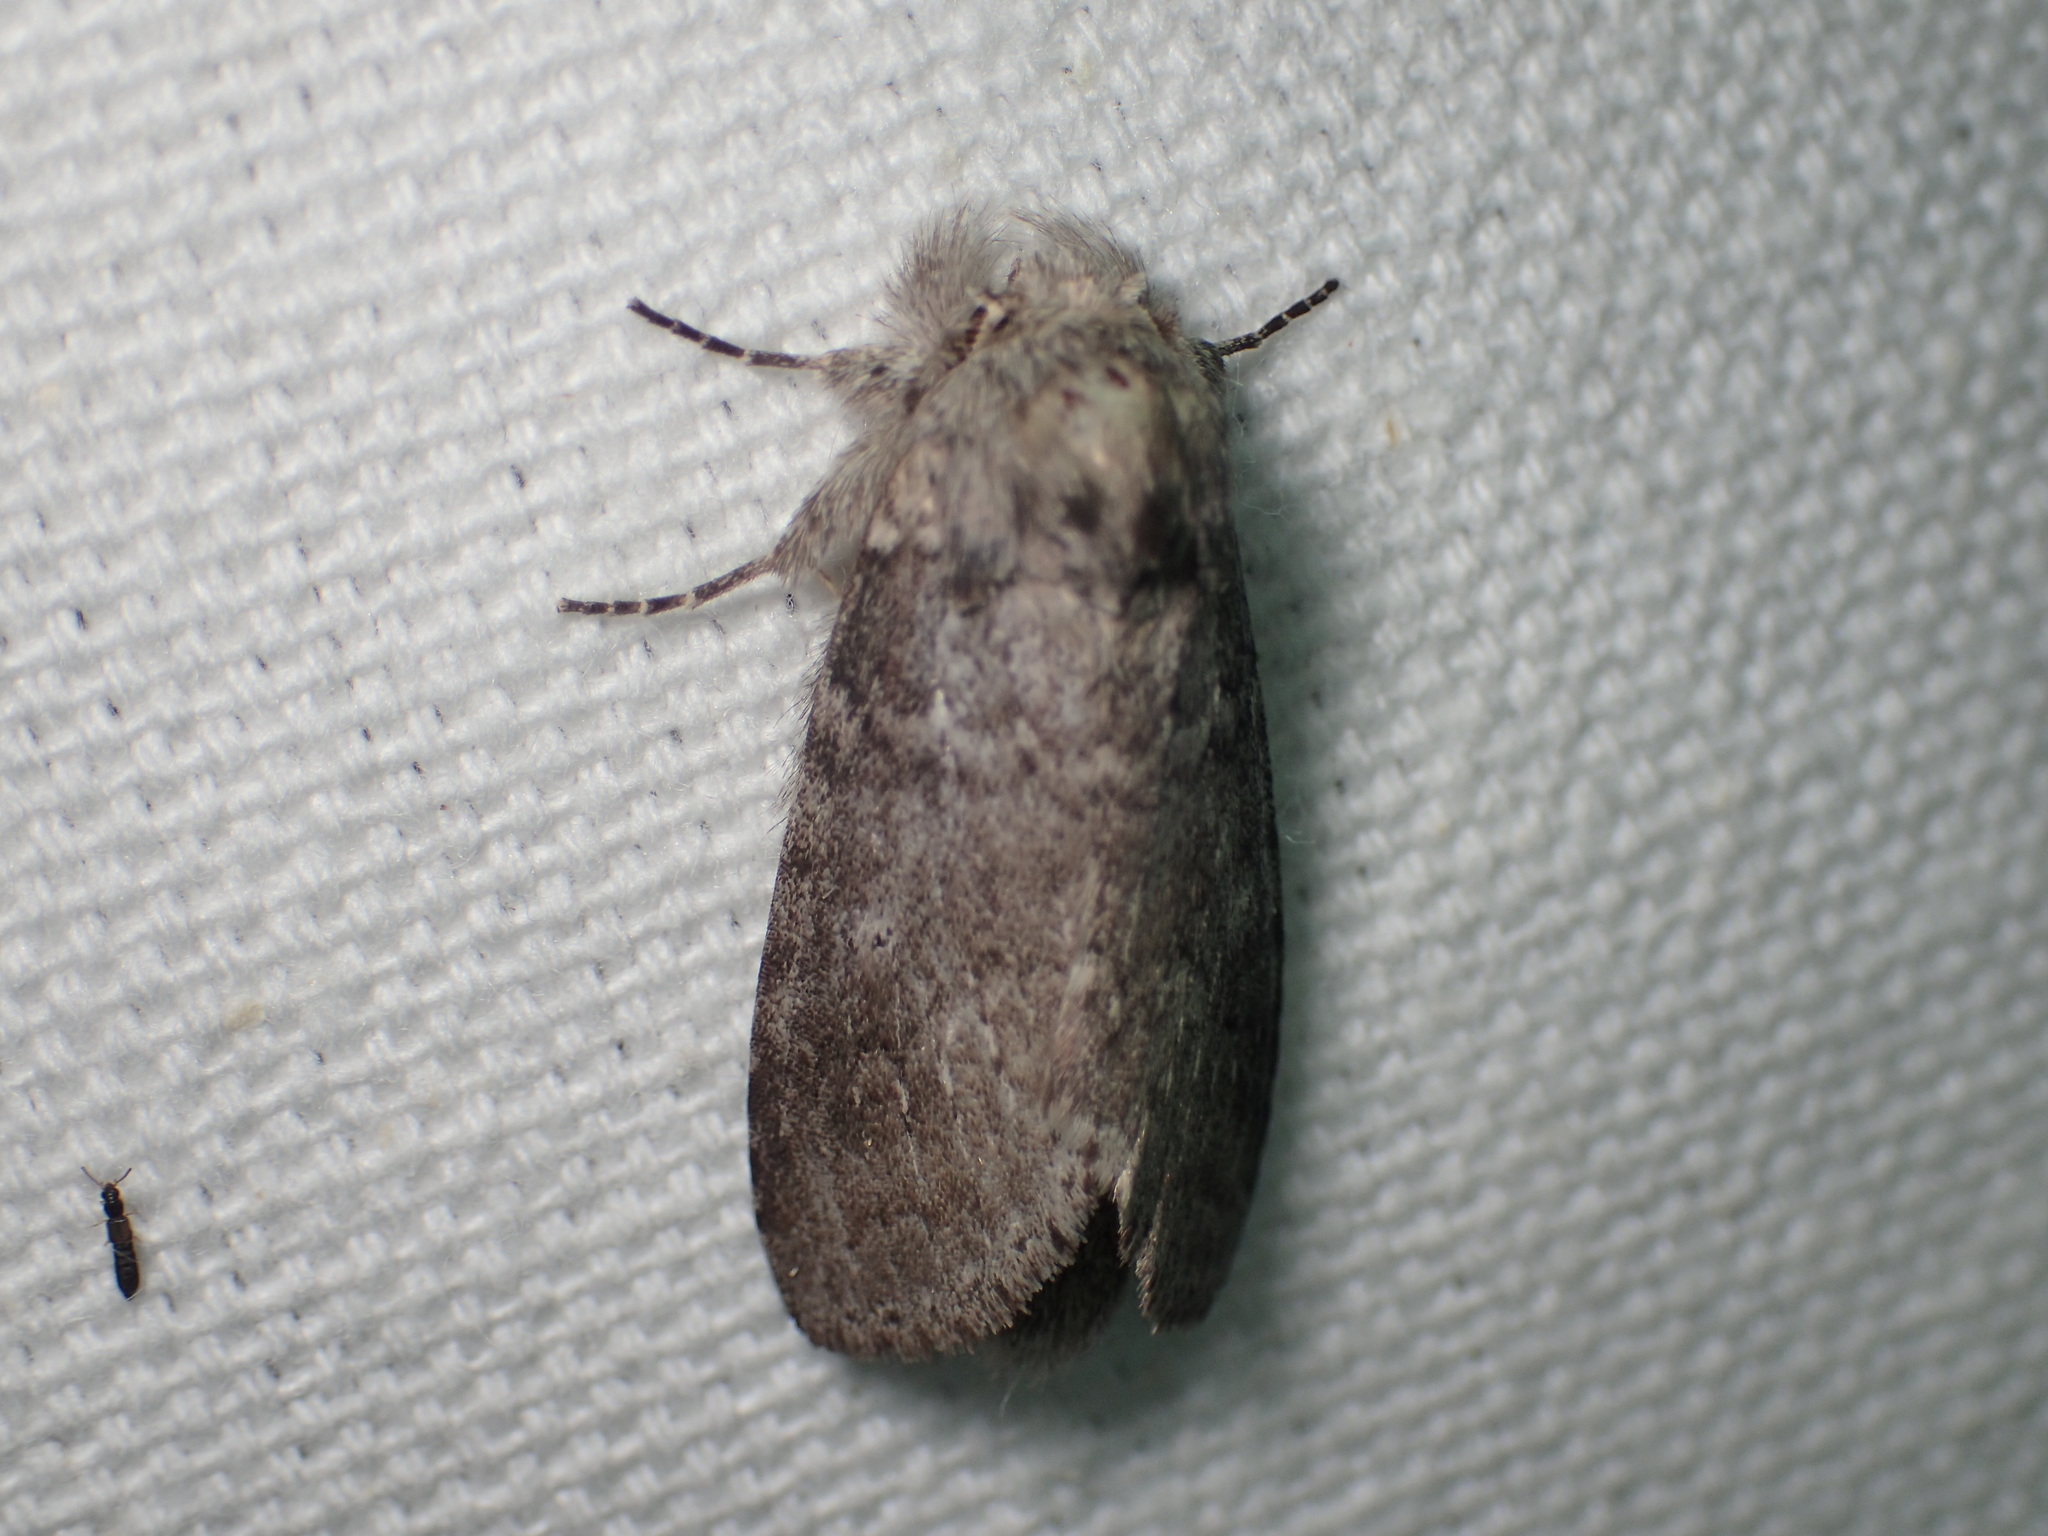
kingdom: Animalia
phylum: Arthropoda
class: Insecta
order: Lepidoptera
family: Notodontidae
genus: Lochmaeus
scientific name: Lochmaeus manteo
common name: Variable oakleaf caterpillar moth
